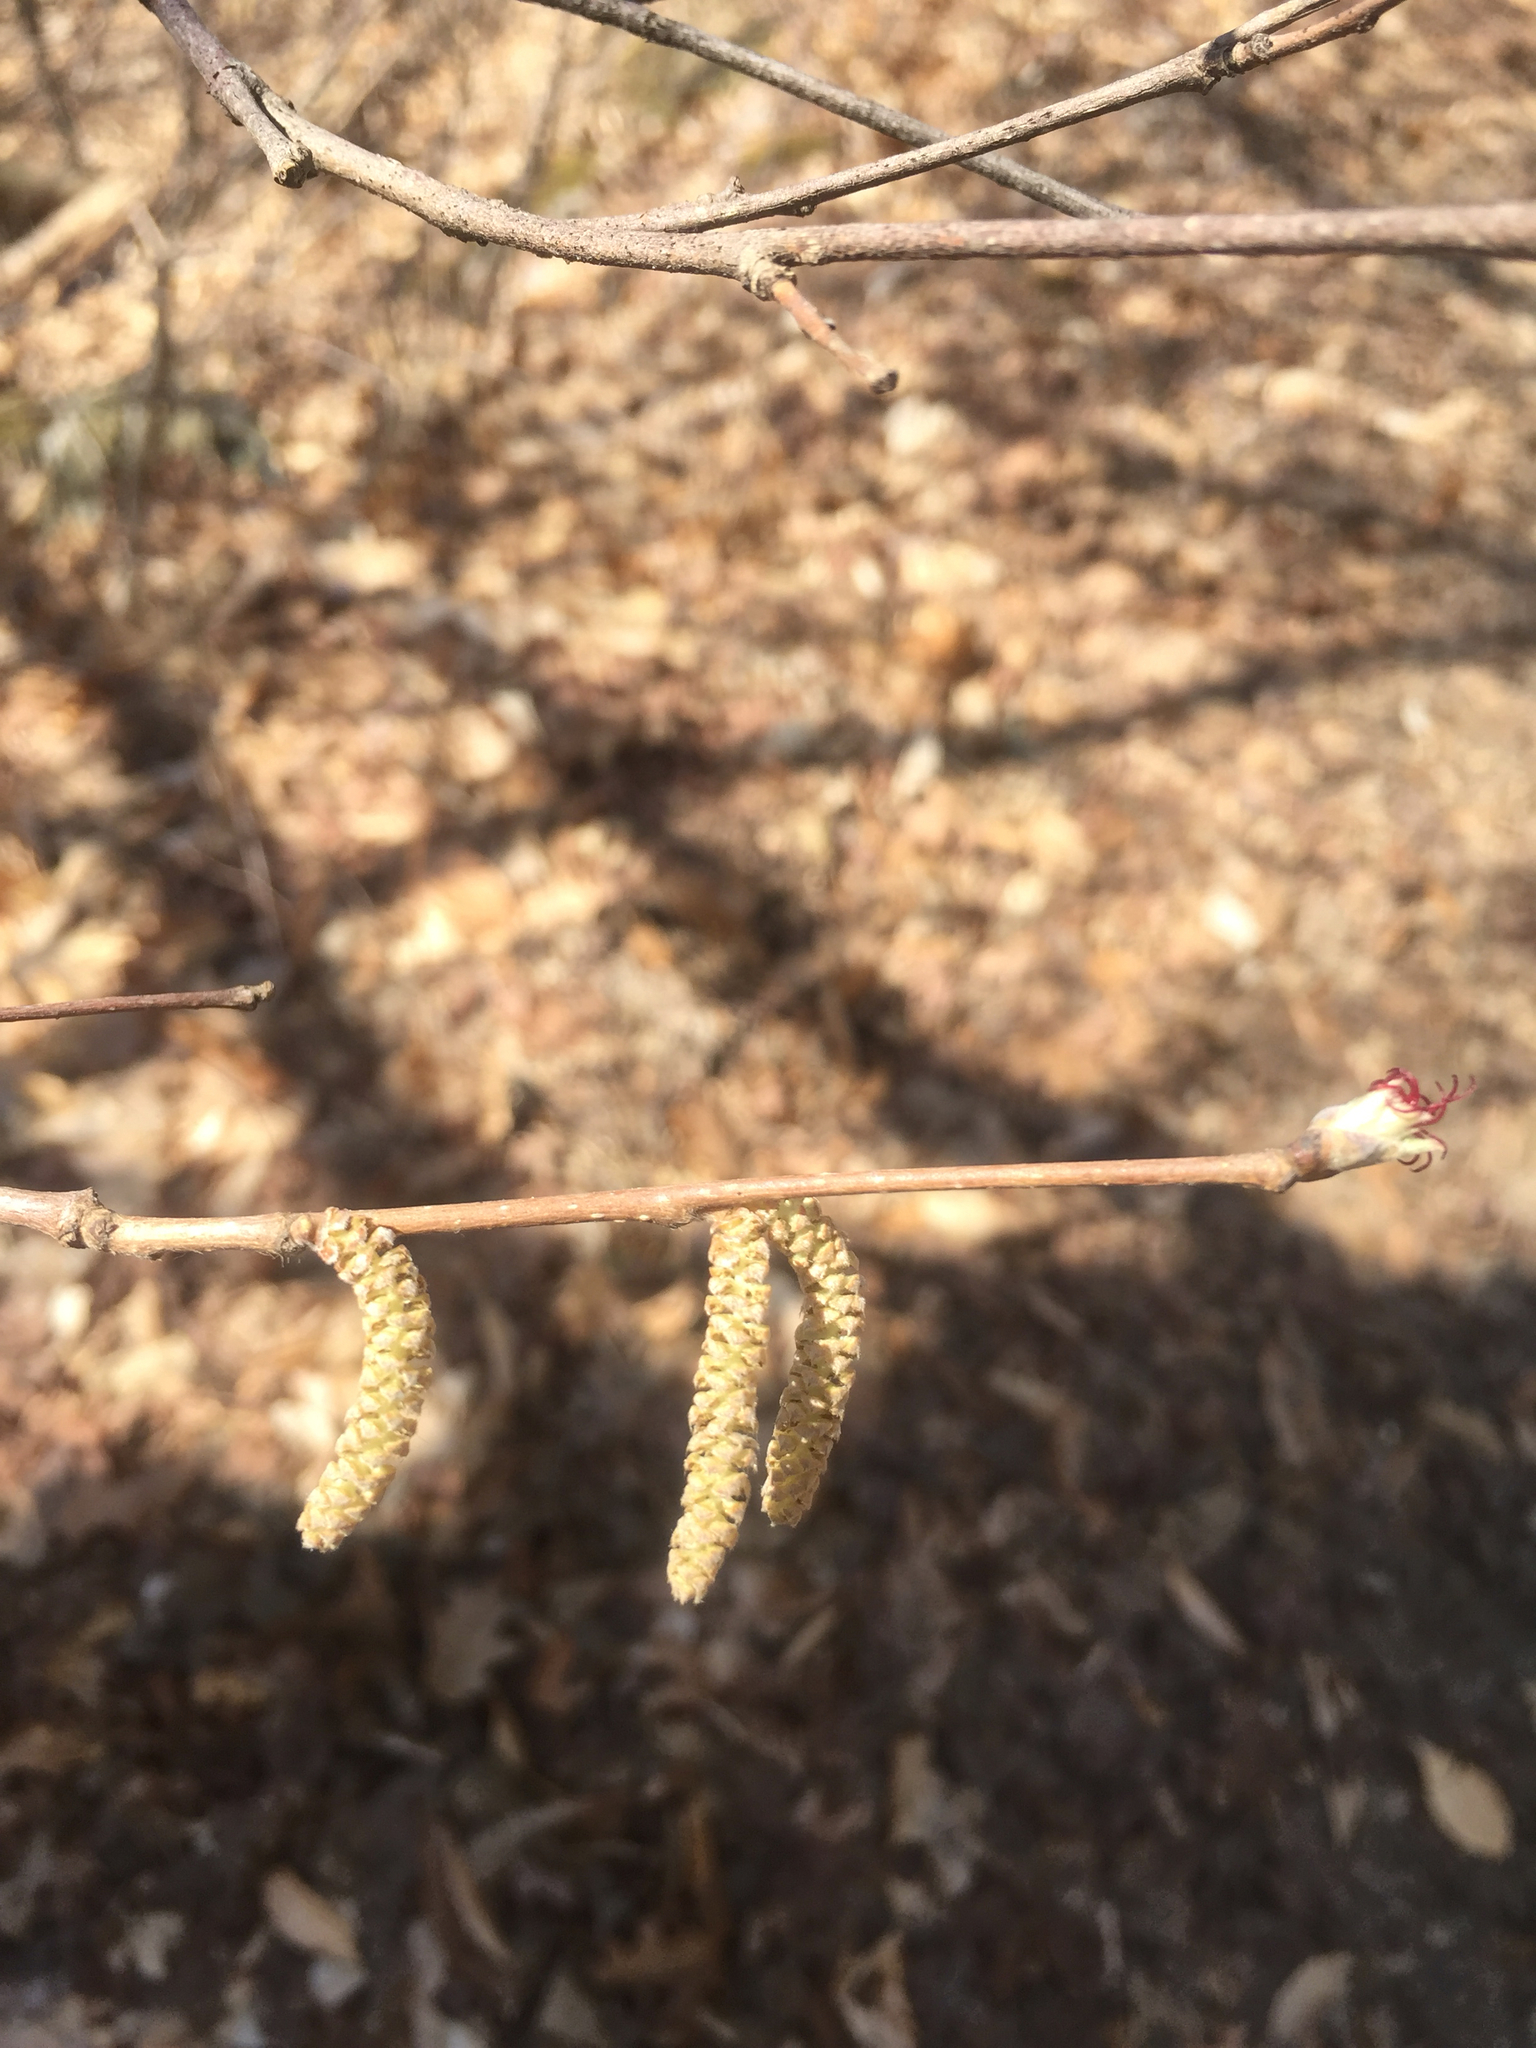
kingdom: Plantae
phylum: Tracheophyta
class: Magnoliopsida
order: Fagales
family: Betulaceae
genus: Corylus
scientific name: Corylus cornuta
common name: Beaked hazel
